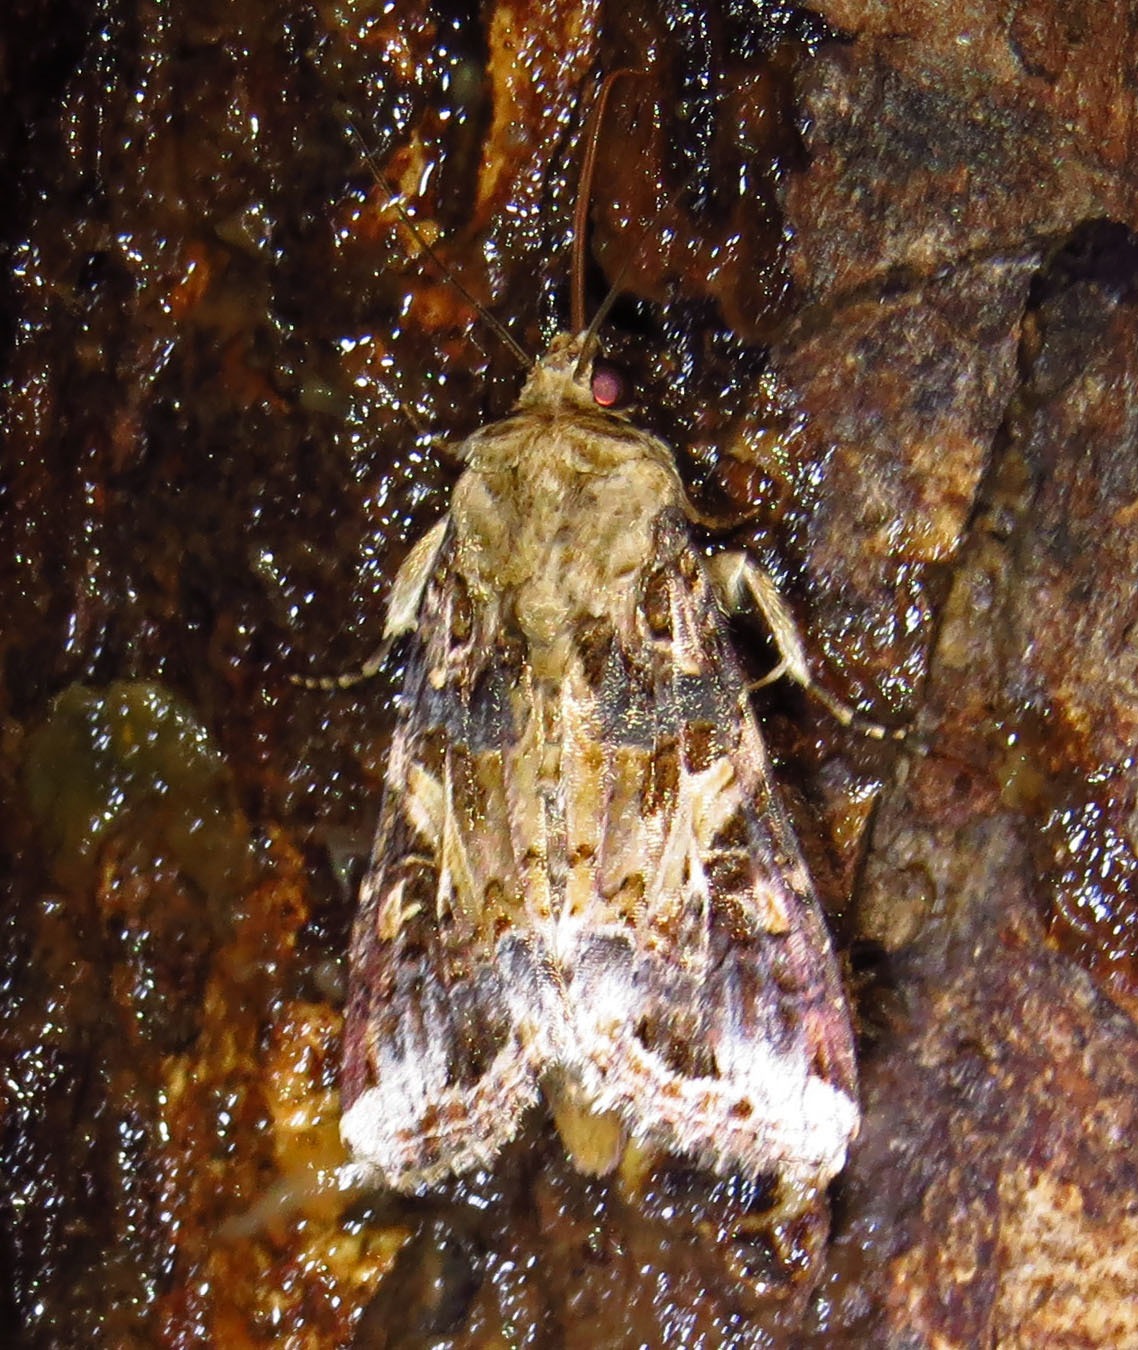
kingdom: Animalia
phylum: Arthropoda
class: Insecta
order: Lepidoptera
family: Noctuidae
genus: Spodoptera
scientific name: Spodoptera ornithogalli
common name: Yellow-striped armyworm
